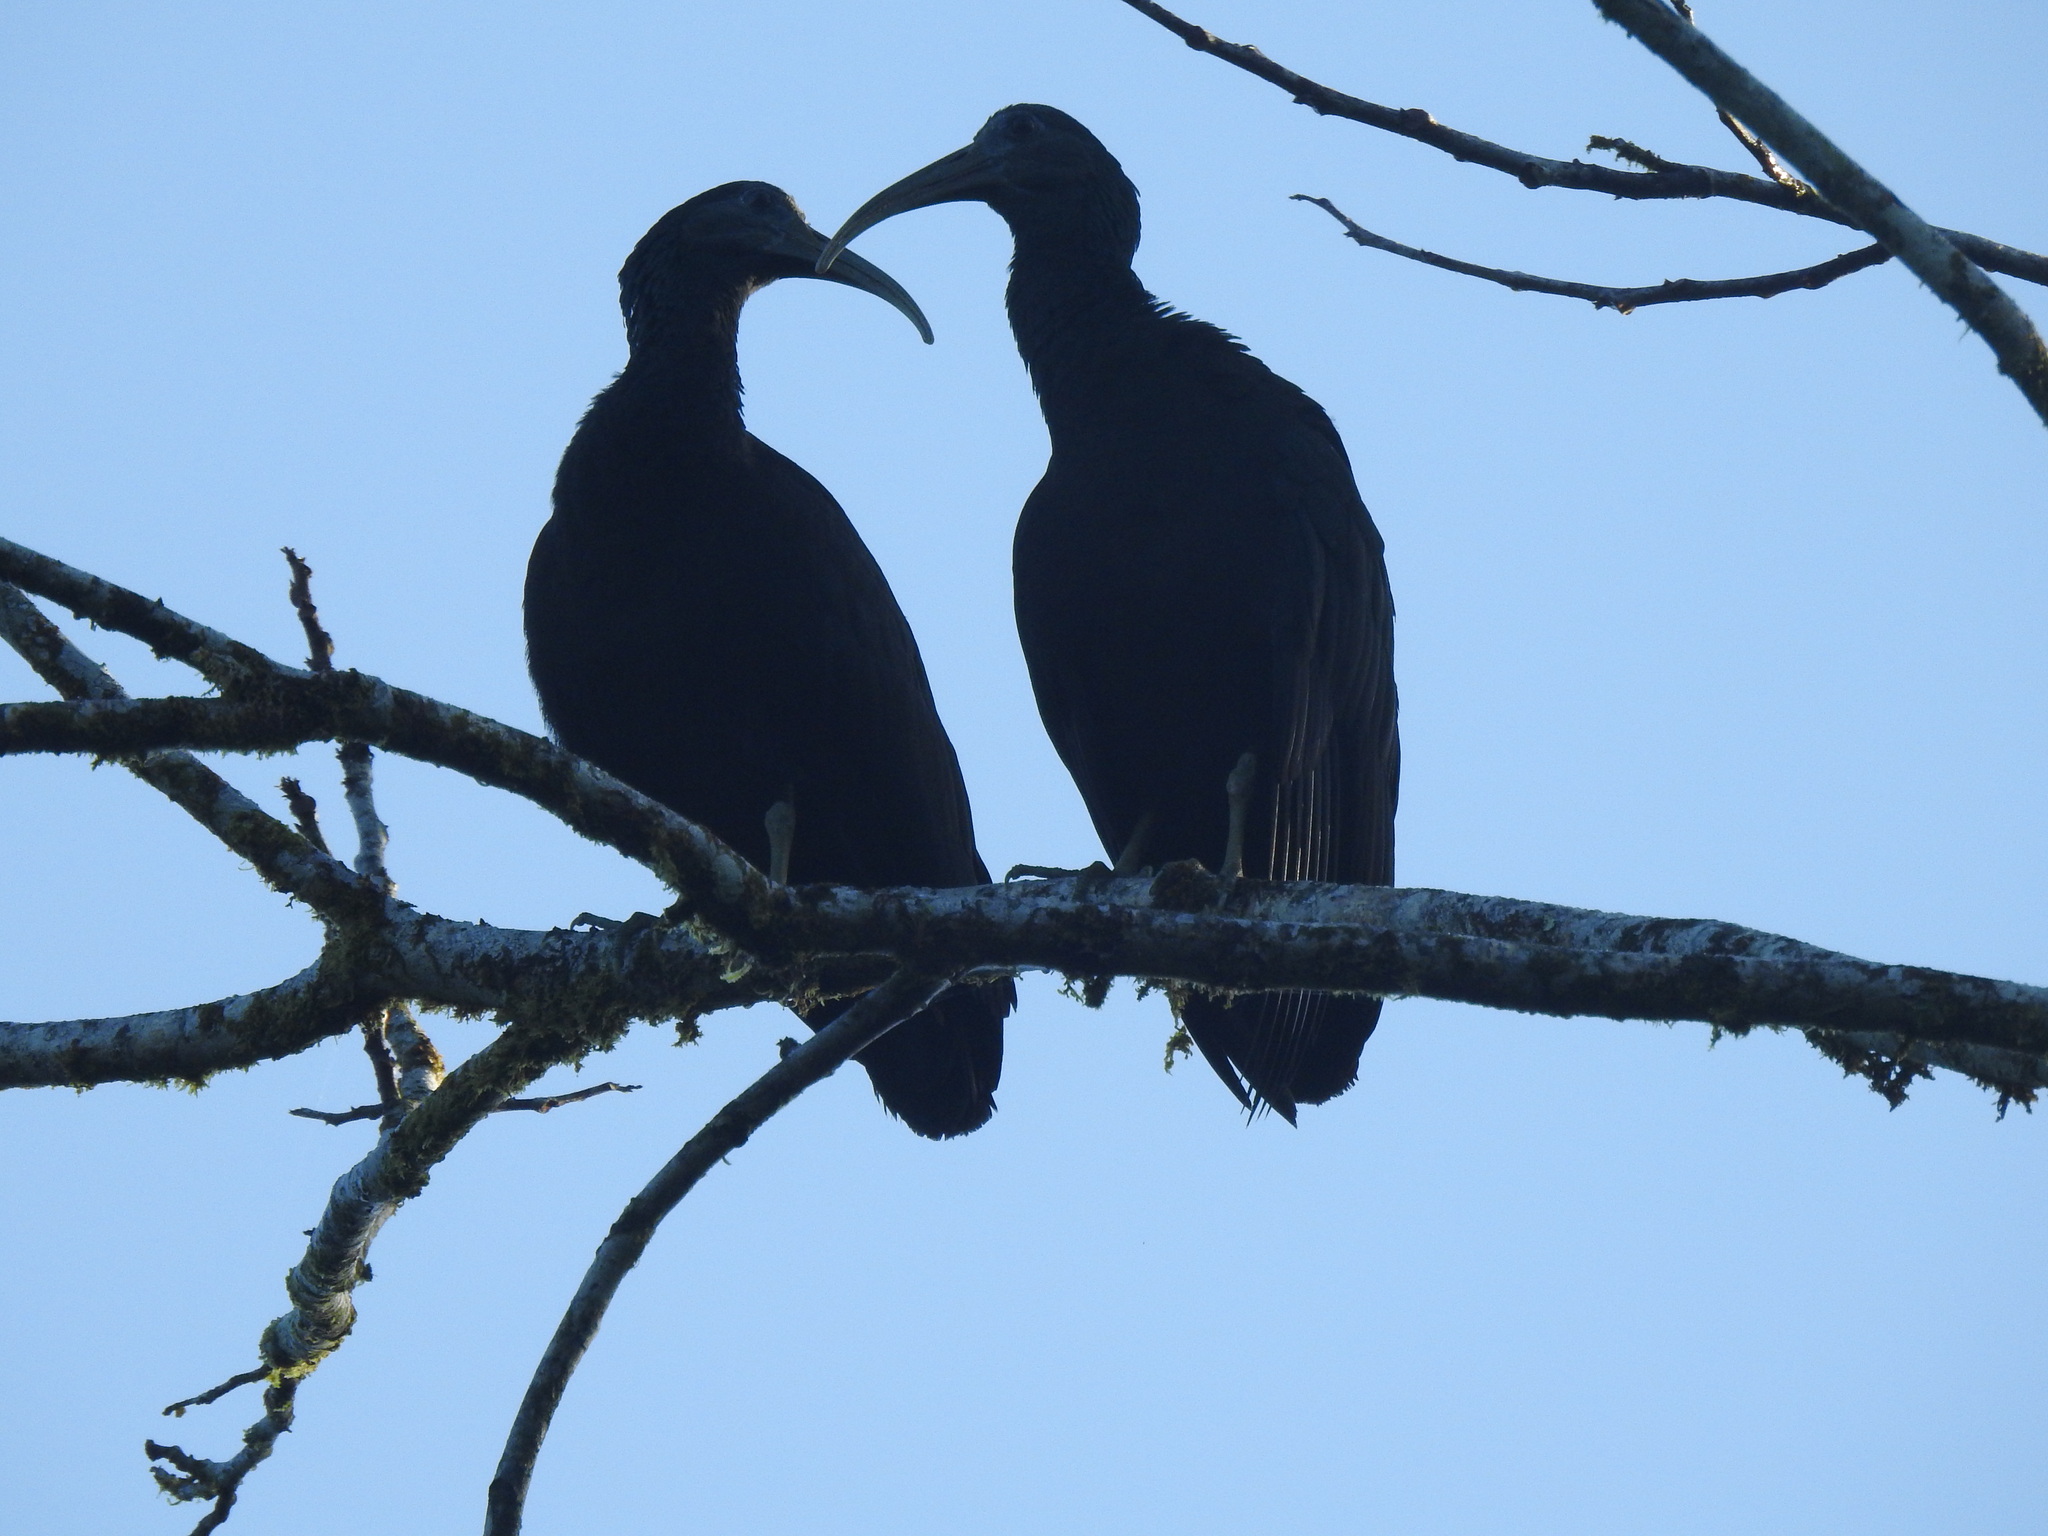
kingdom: Animalia
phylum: Chordata
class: Aves
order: Pelecaniformes
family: Threskiornithidae
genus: Mesembrinibis
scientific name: Mesembrinibis cayennensis
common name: Green ibis
